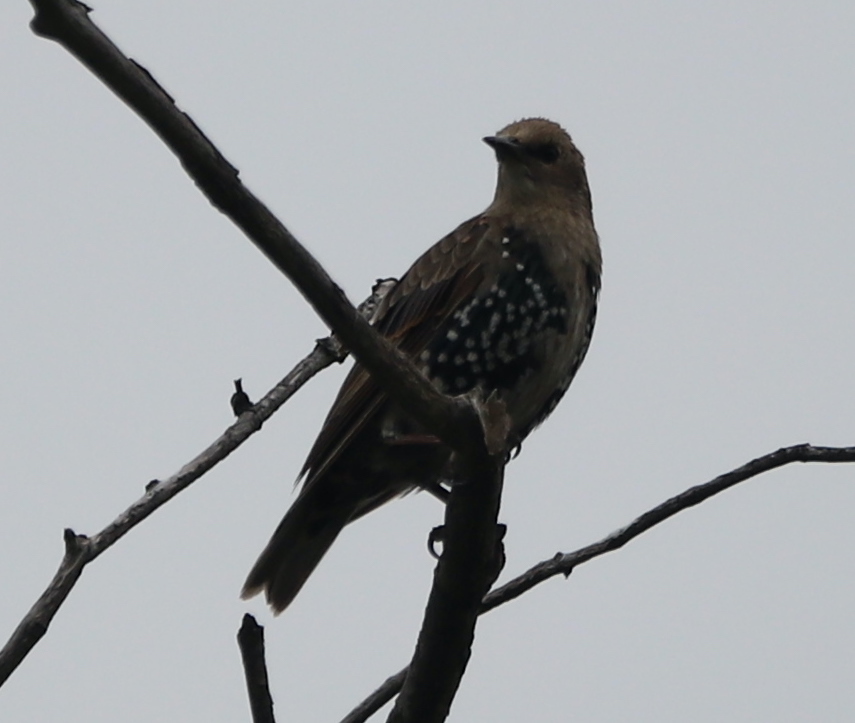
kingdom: Animalia
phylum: Chordata
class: Aves
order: Passeriformes
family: Sturnidae
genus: Sturnus
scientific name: Sturnus vulgaris
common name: Common starling
